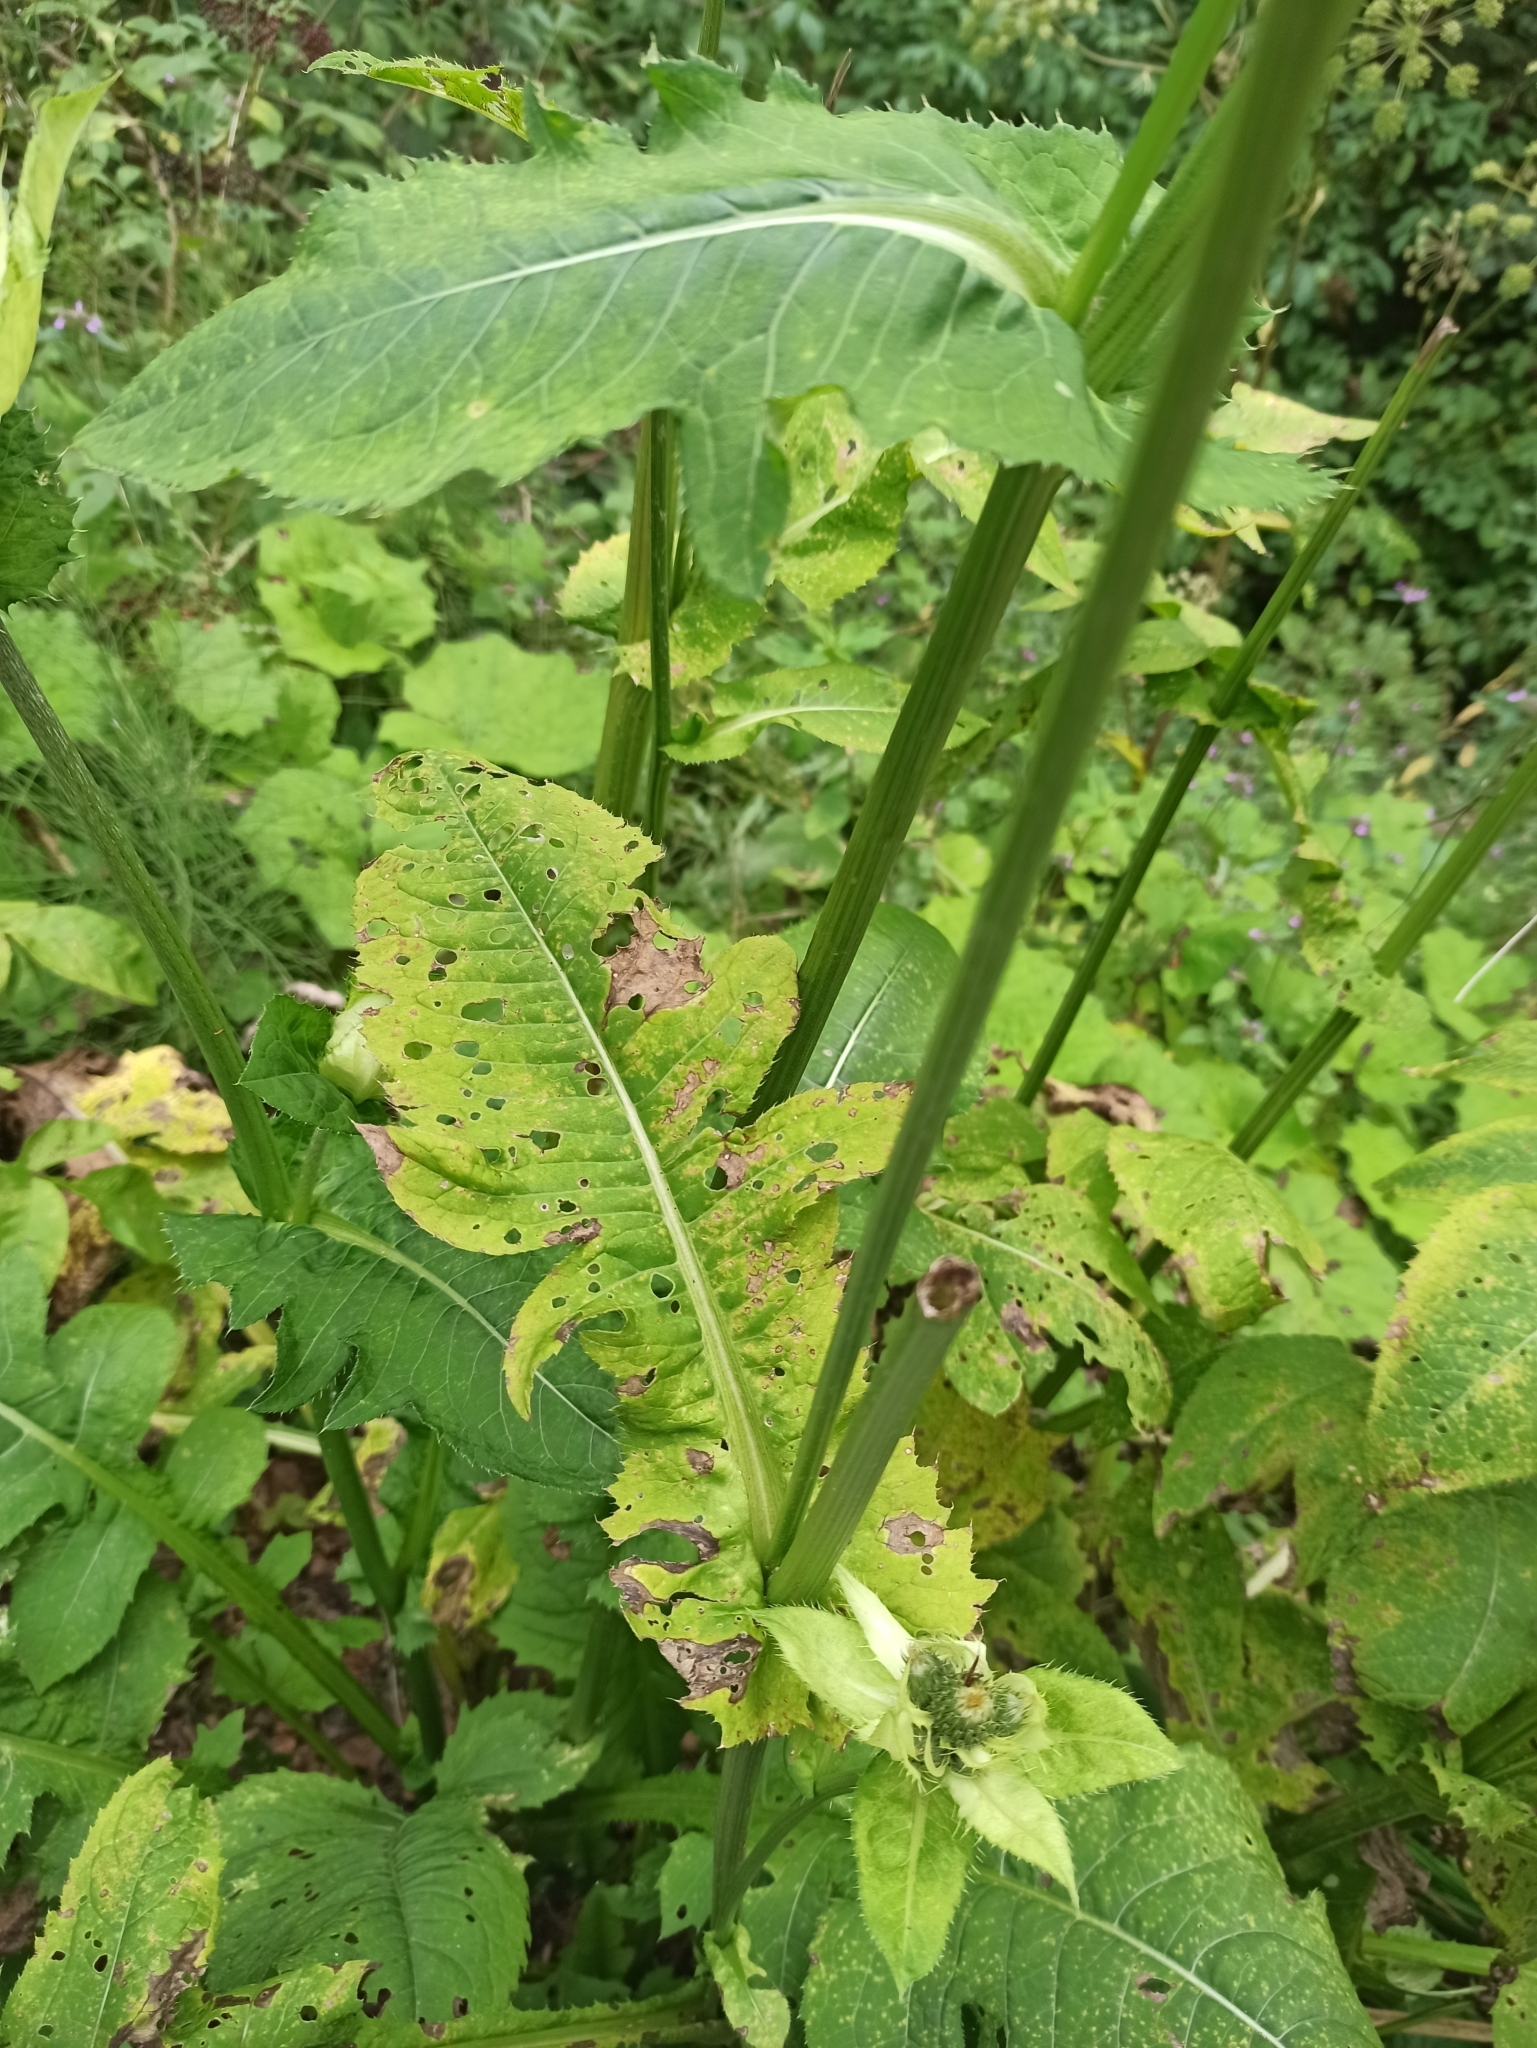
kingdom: Plantae
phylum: Tracheophyta
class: Magnoliopsida
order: Asterales
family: Asteraceae
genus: Cirsium
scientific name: Cirsium oleraceum
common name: Cabbage thistle
